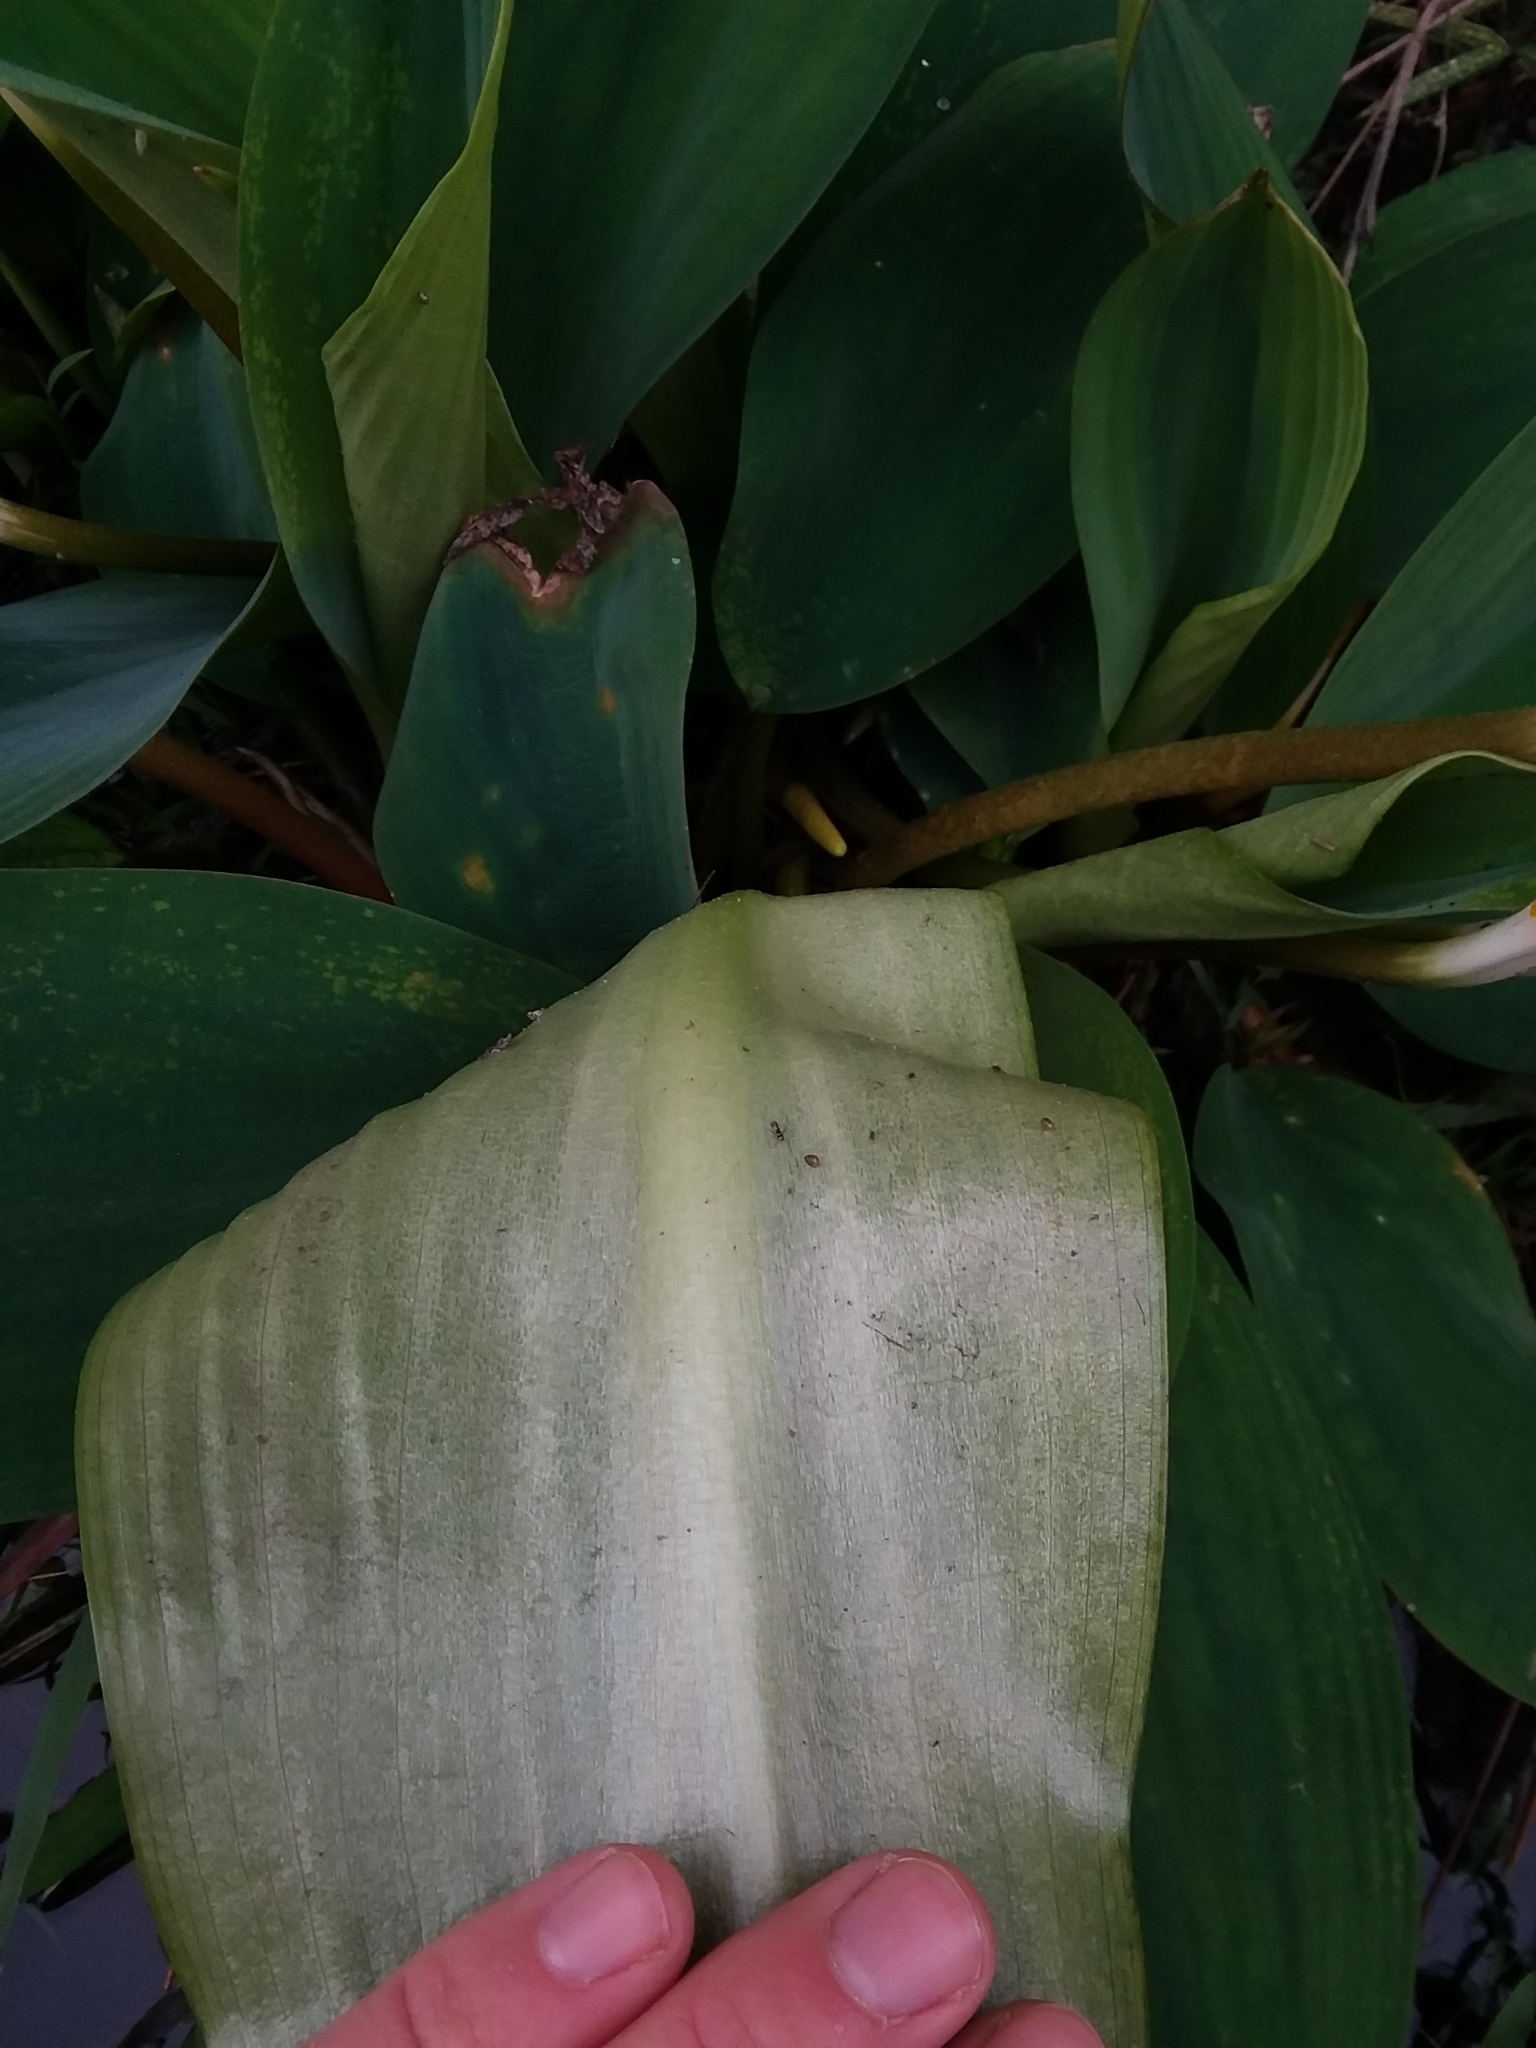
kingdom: Plantae
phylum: Tracheophyta
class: Liliopsida
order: Alismatales
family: Araceae
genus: Orontium
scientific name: Orontium aquaticum
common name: Golden-club
